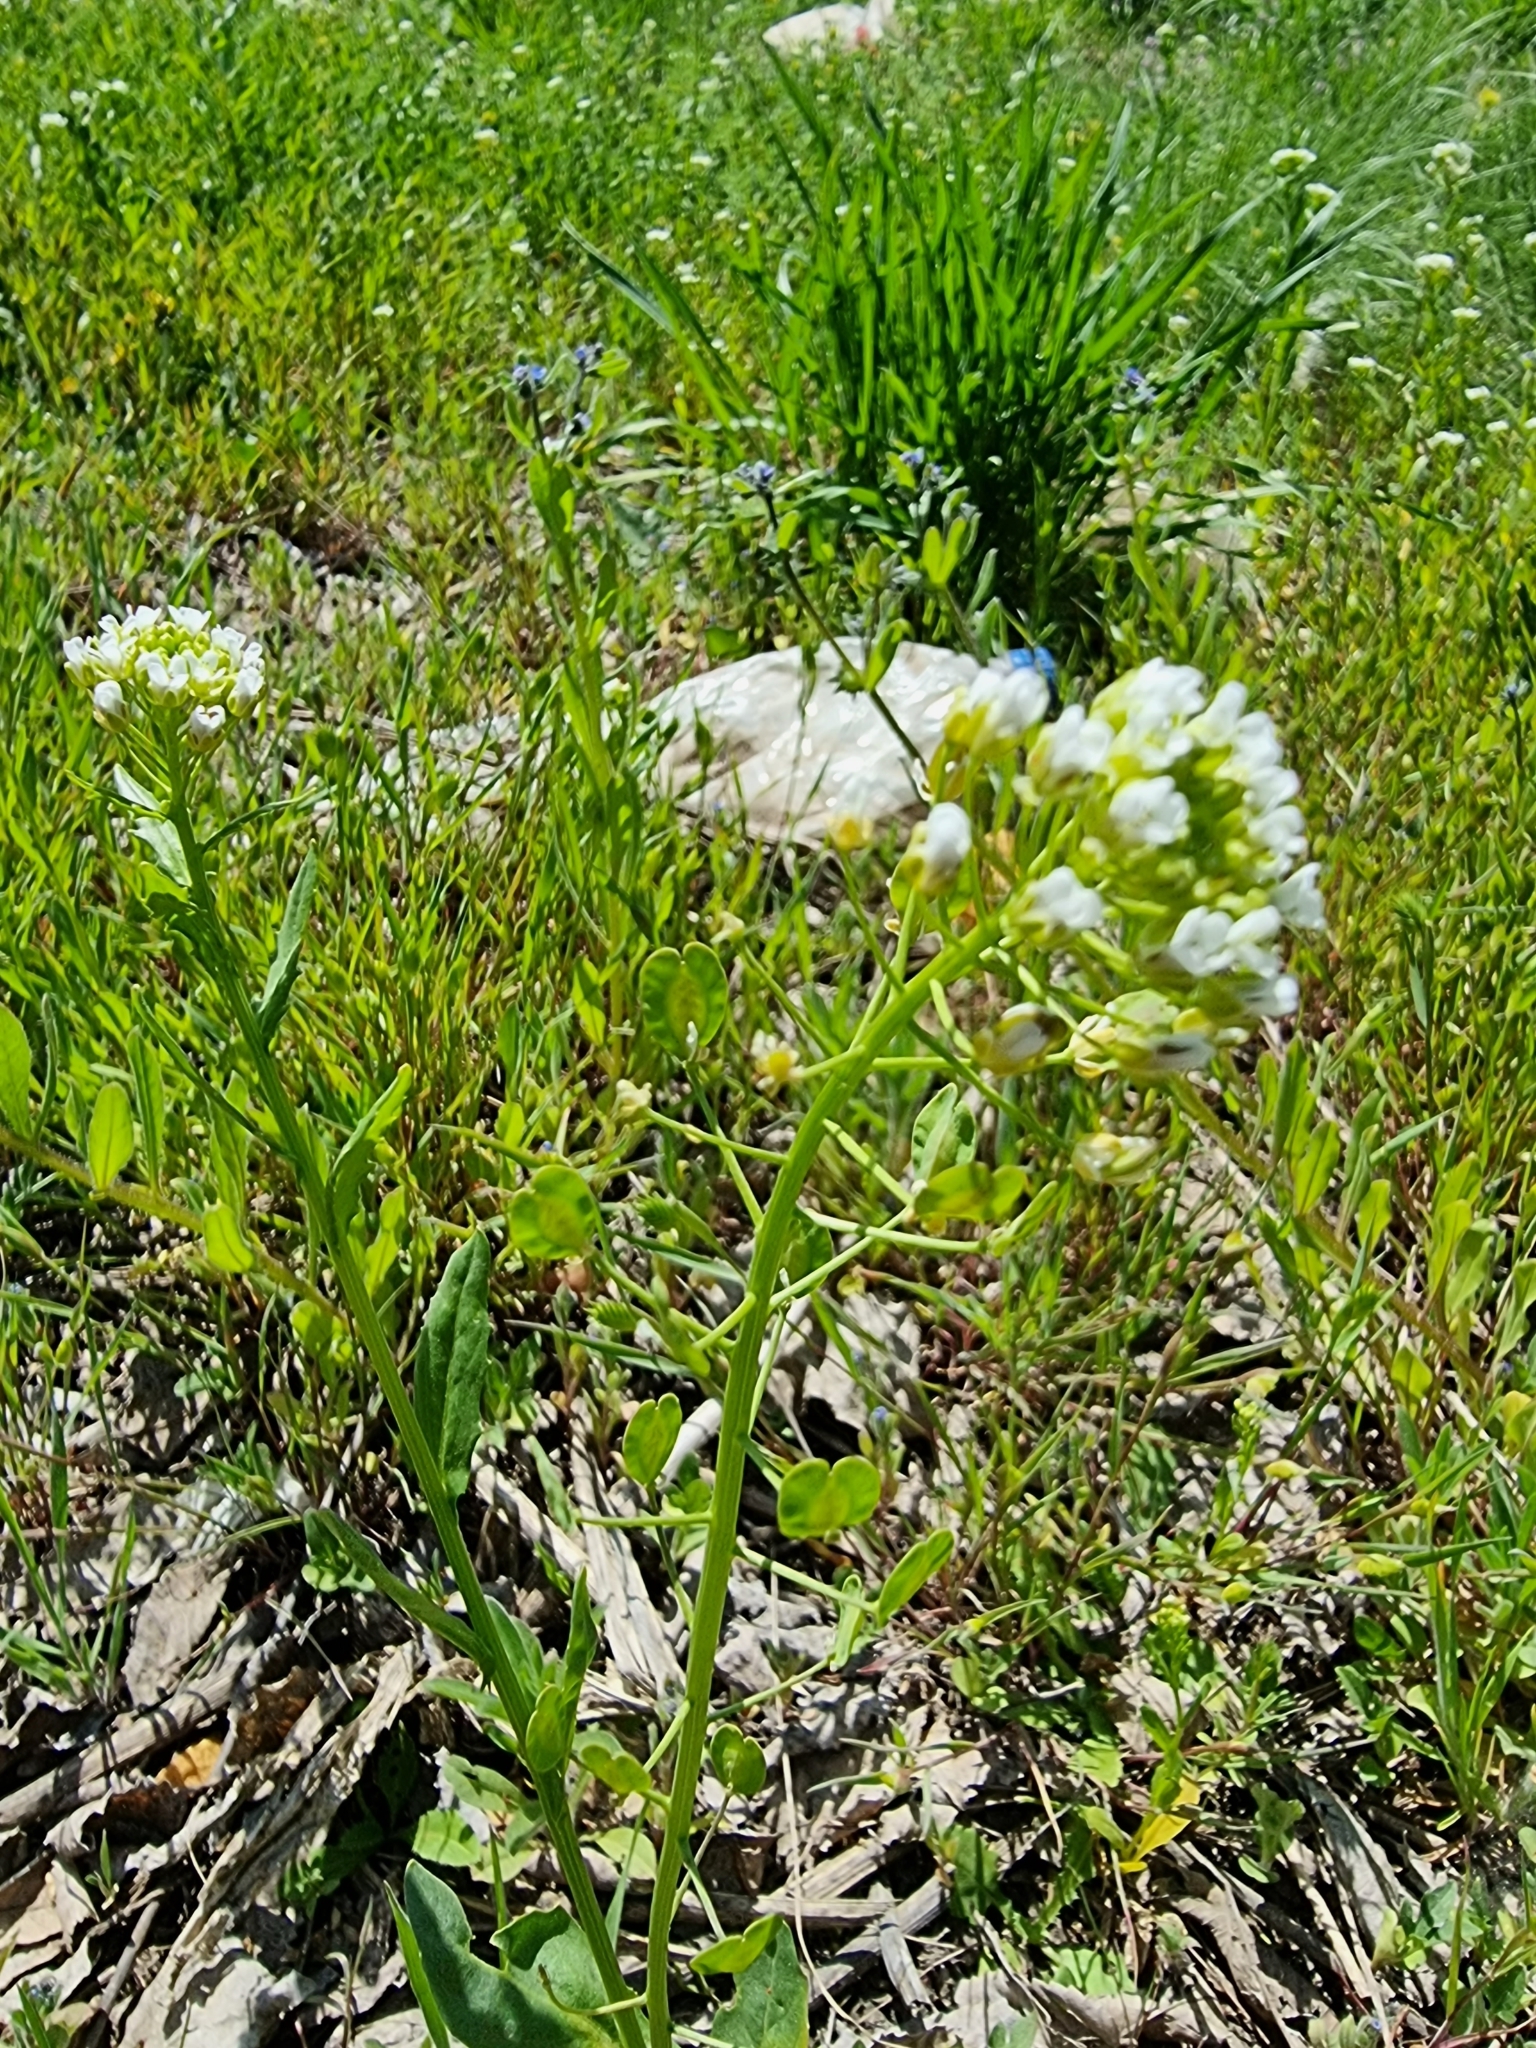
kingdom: Plantae
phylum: Tracheophyta
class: Magnoliopsida
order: Brassicales
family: Brassicaceae
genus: Thlaspi
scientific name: Thlaspi arvense
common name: Field pennycress
